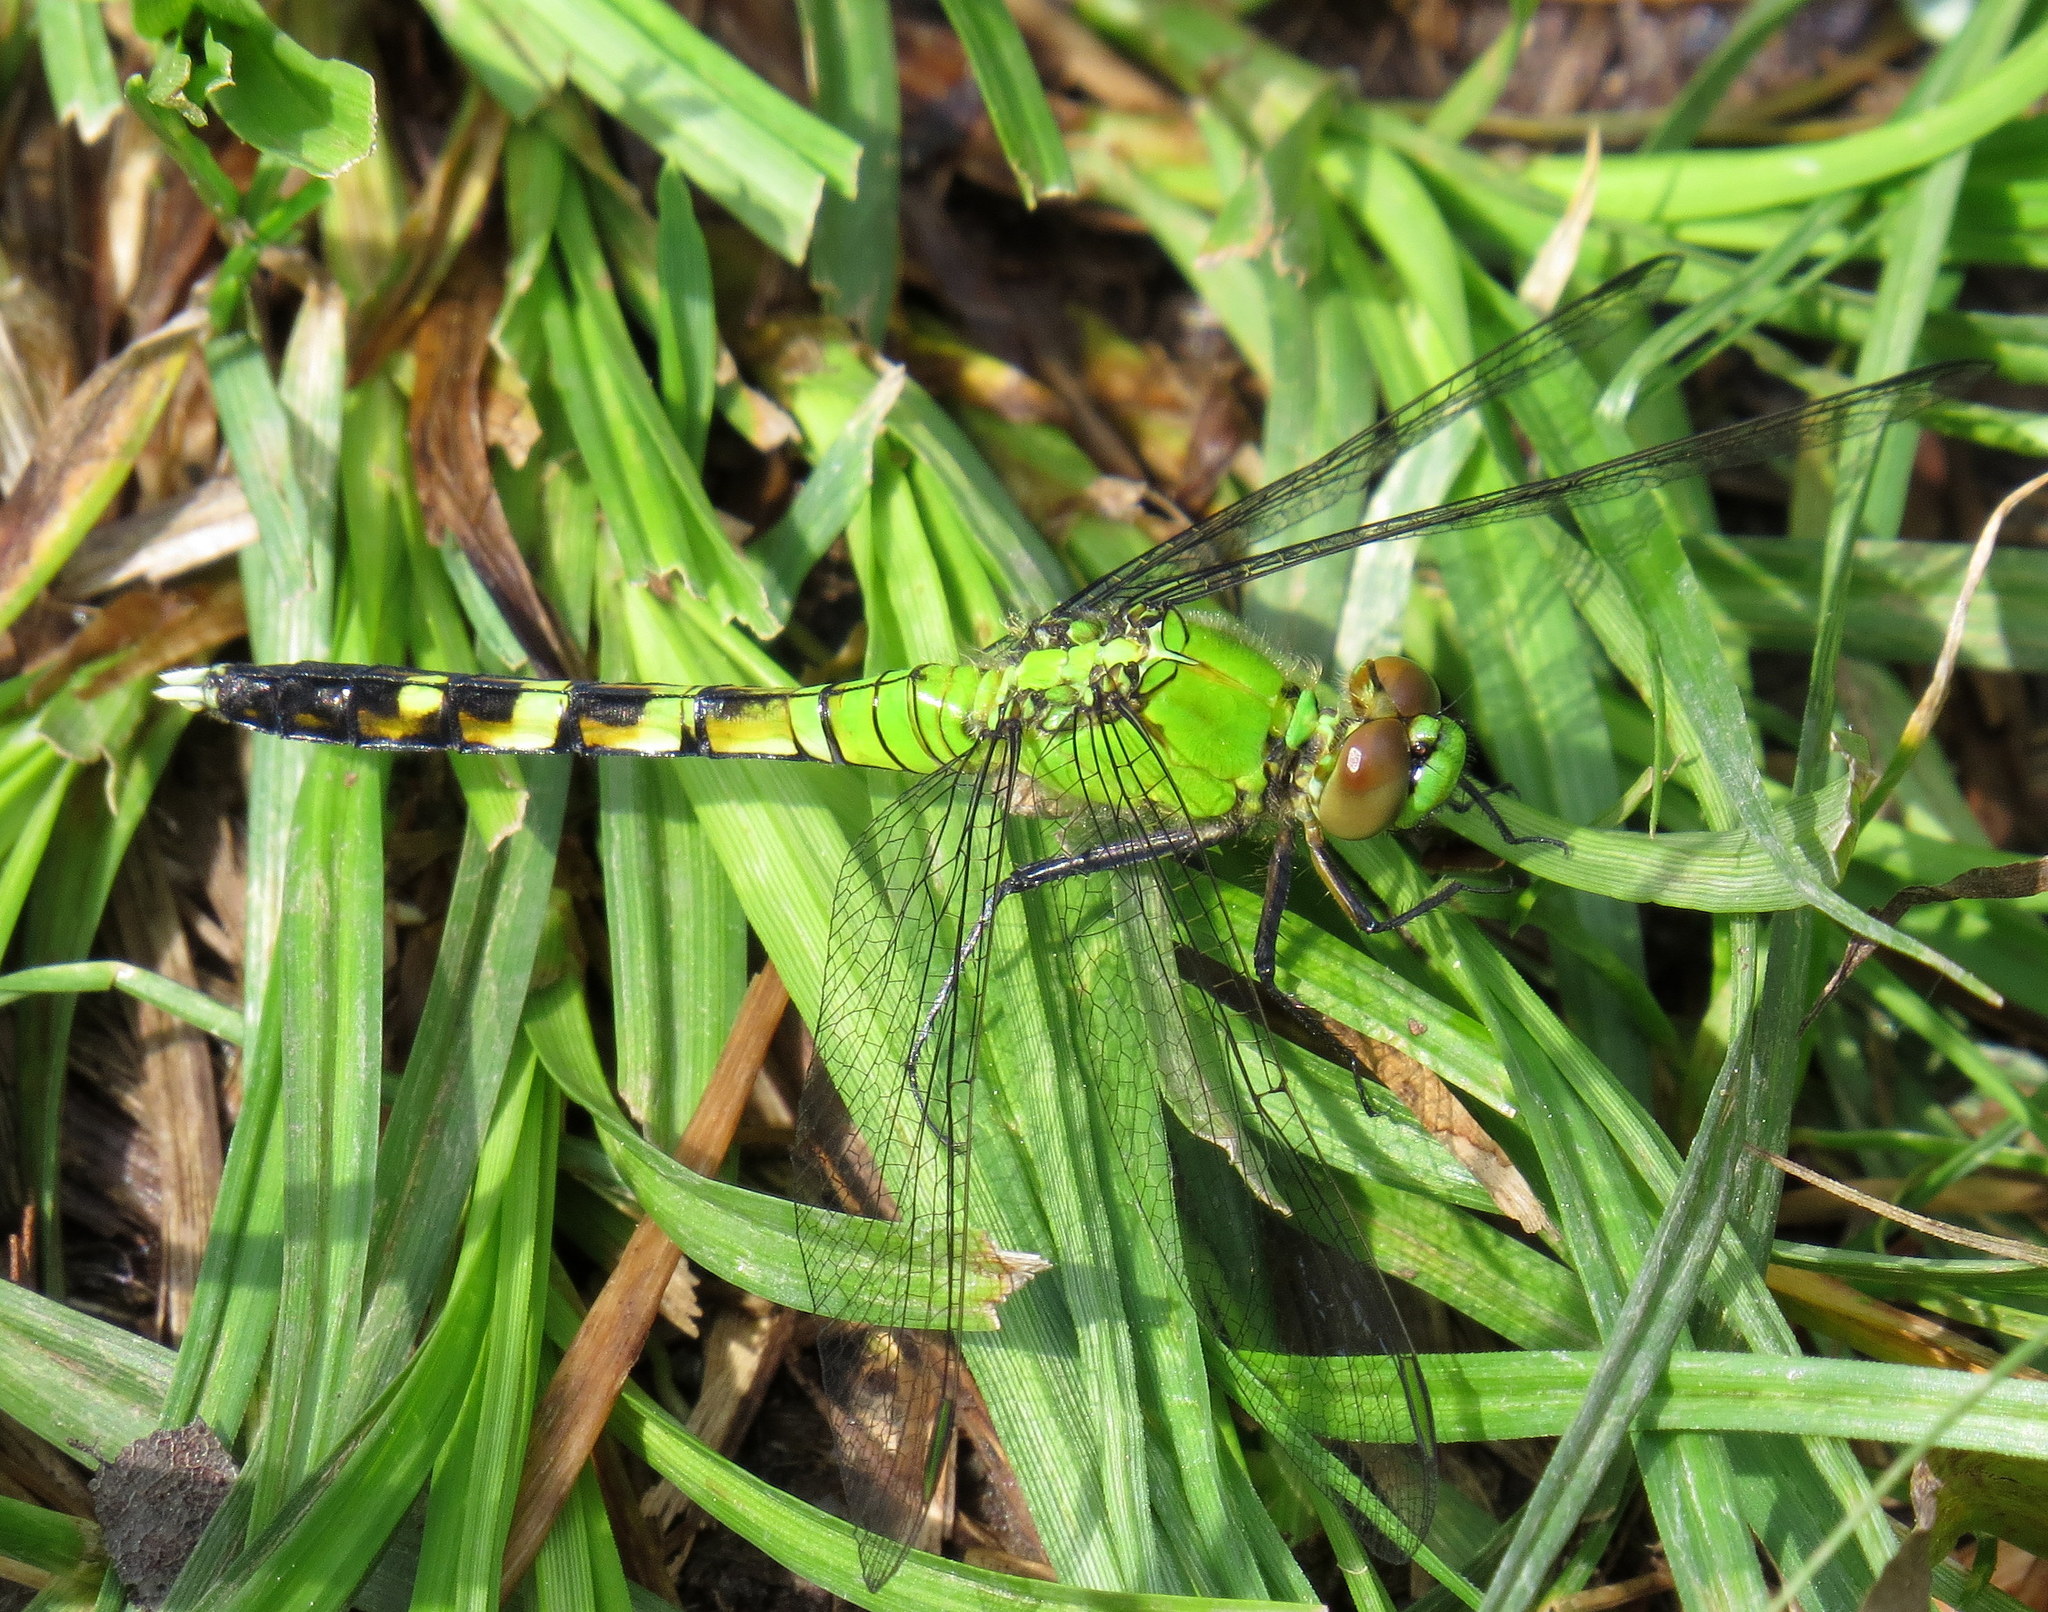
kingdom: Animalia
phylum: Arthropoda
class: Insecta
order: Odonata
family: Libellulidae
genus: Erythemis
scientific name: Erythemis simplicicollis
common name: Eastern pondhawk
